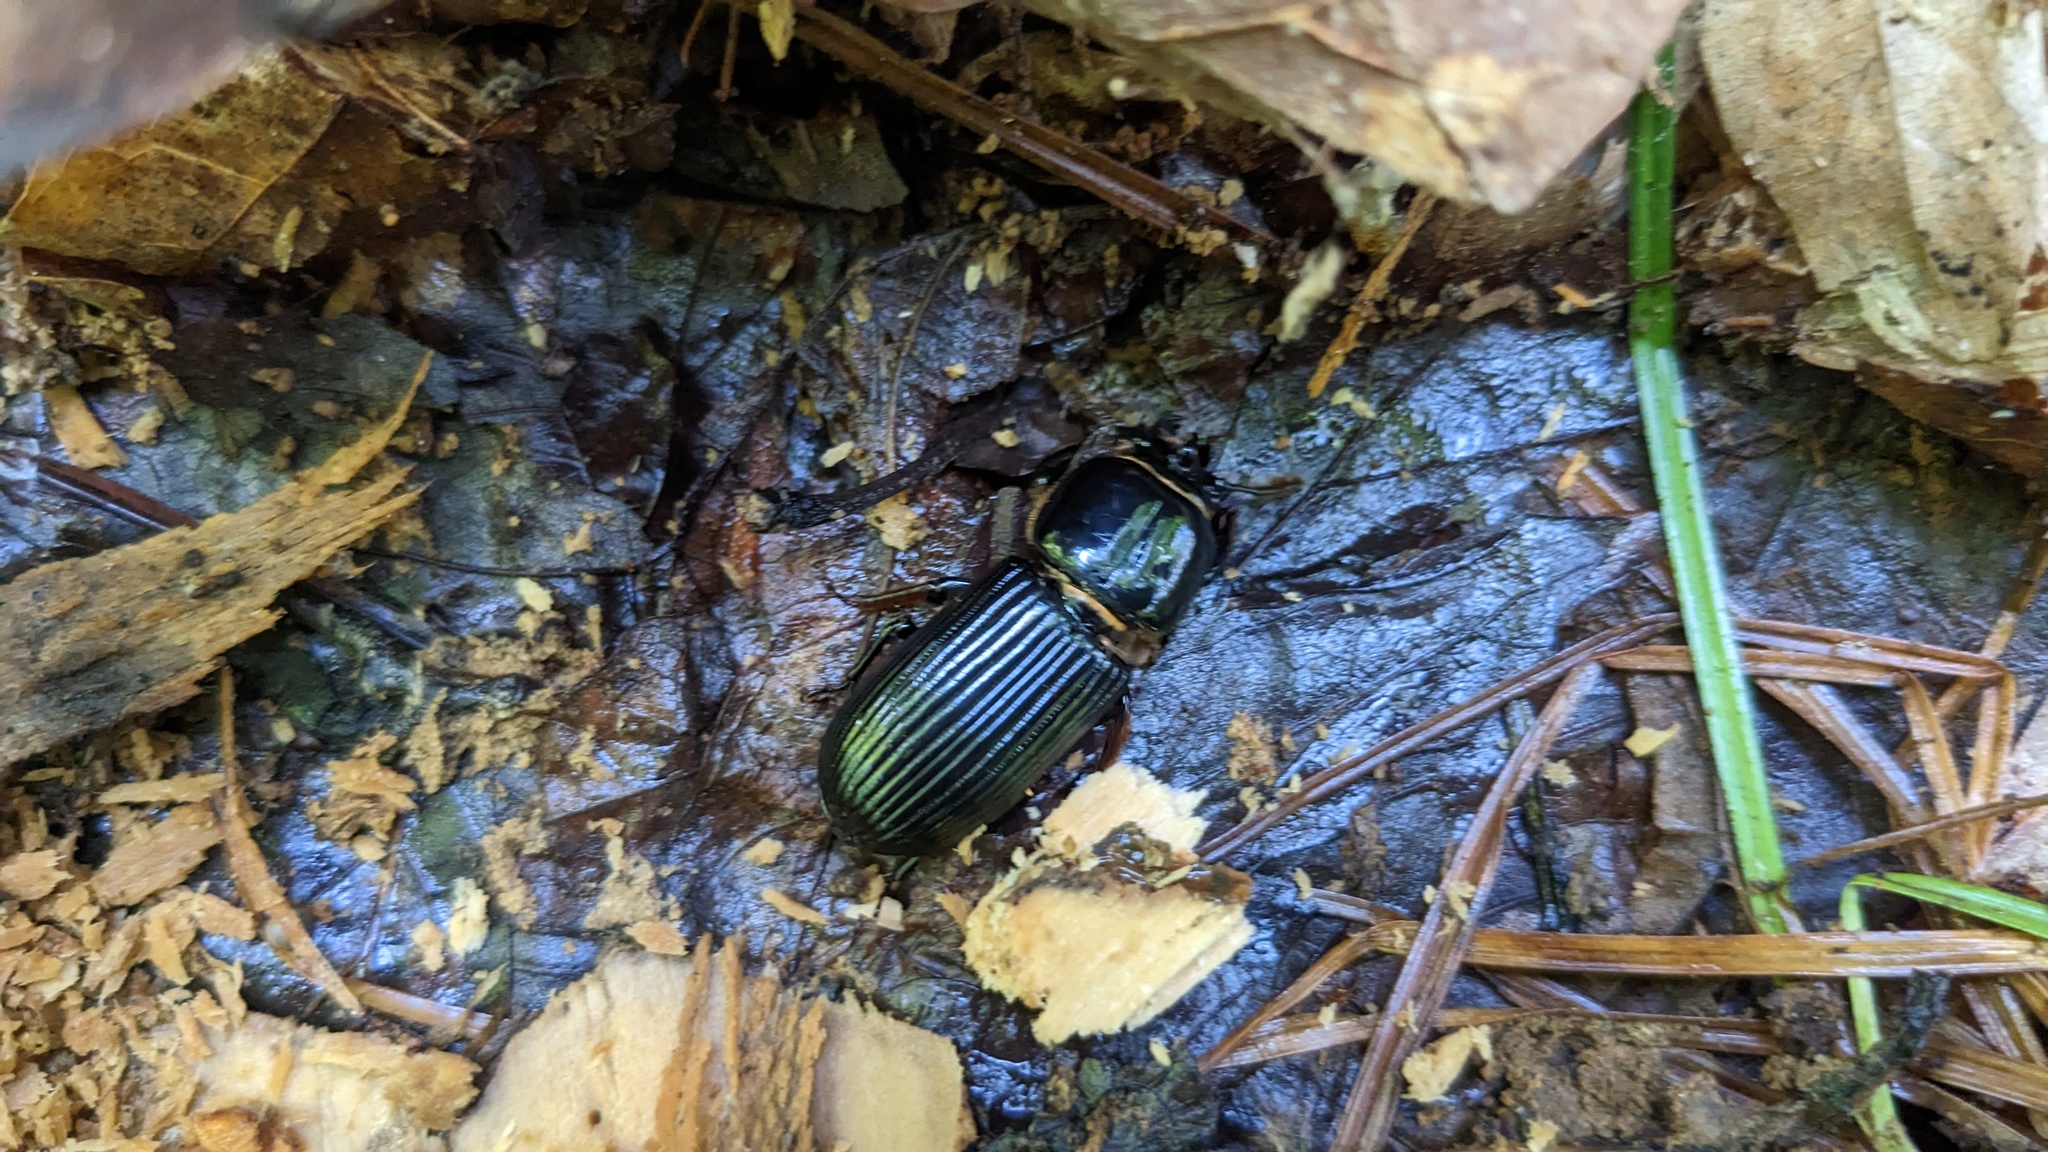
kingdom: Animalia
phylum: Arthropoda
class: Insecta
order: Coleoptera
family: Passalidae
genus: Odontotaenius
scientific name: Odontotaenius disjunctus
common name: Patent leather beetle
